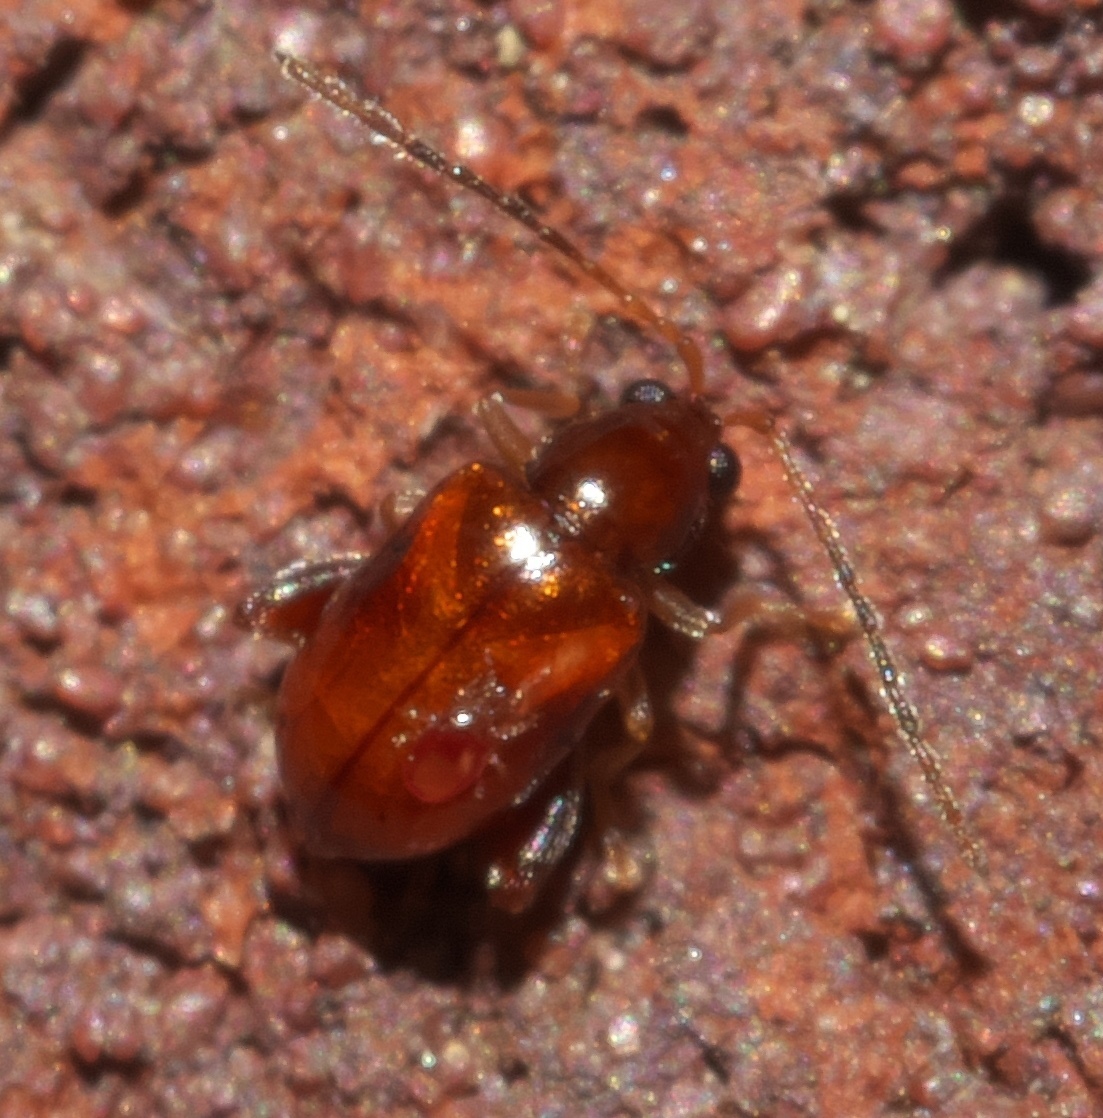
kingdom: Animalia
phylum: Arthropoda
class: Insecta
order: Coleoptera
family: Chrysomelidae
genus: Longitarsus
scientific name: Longitarsus varicornis
